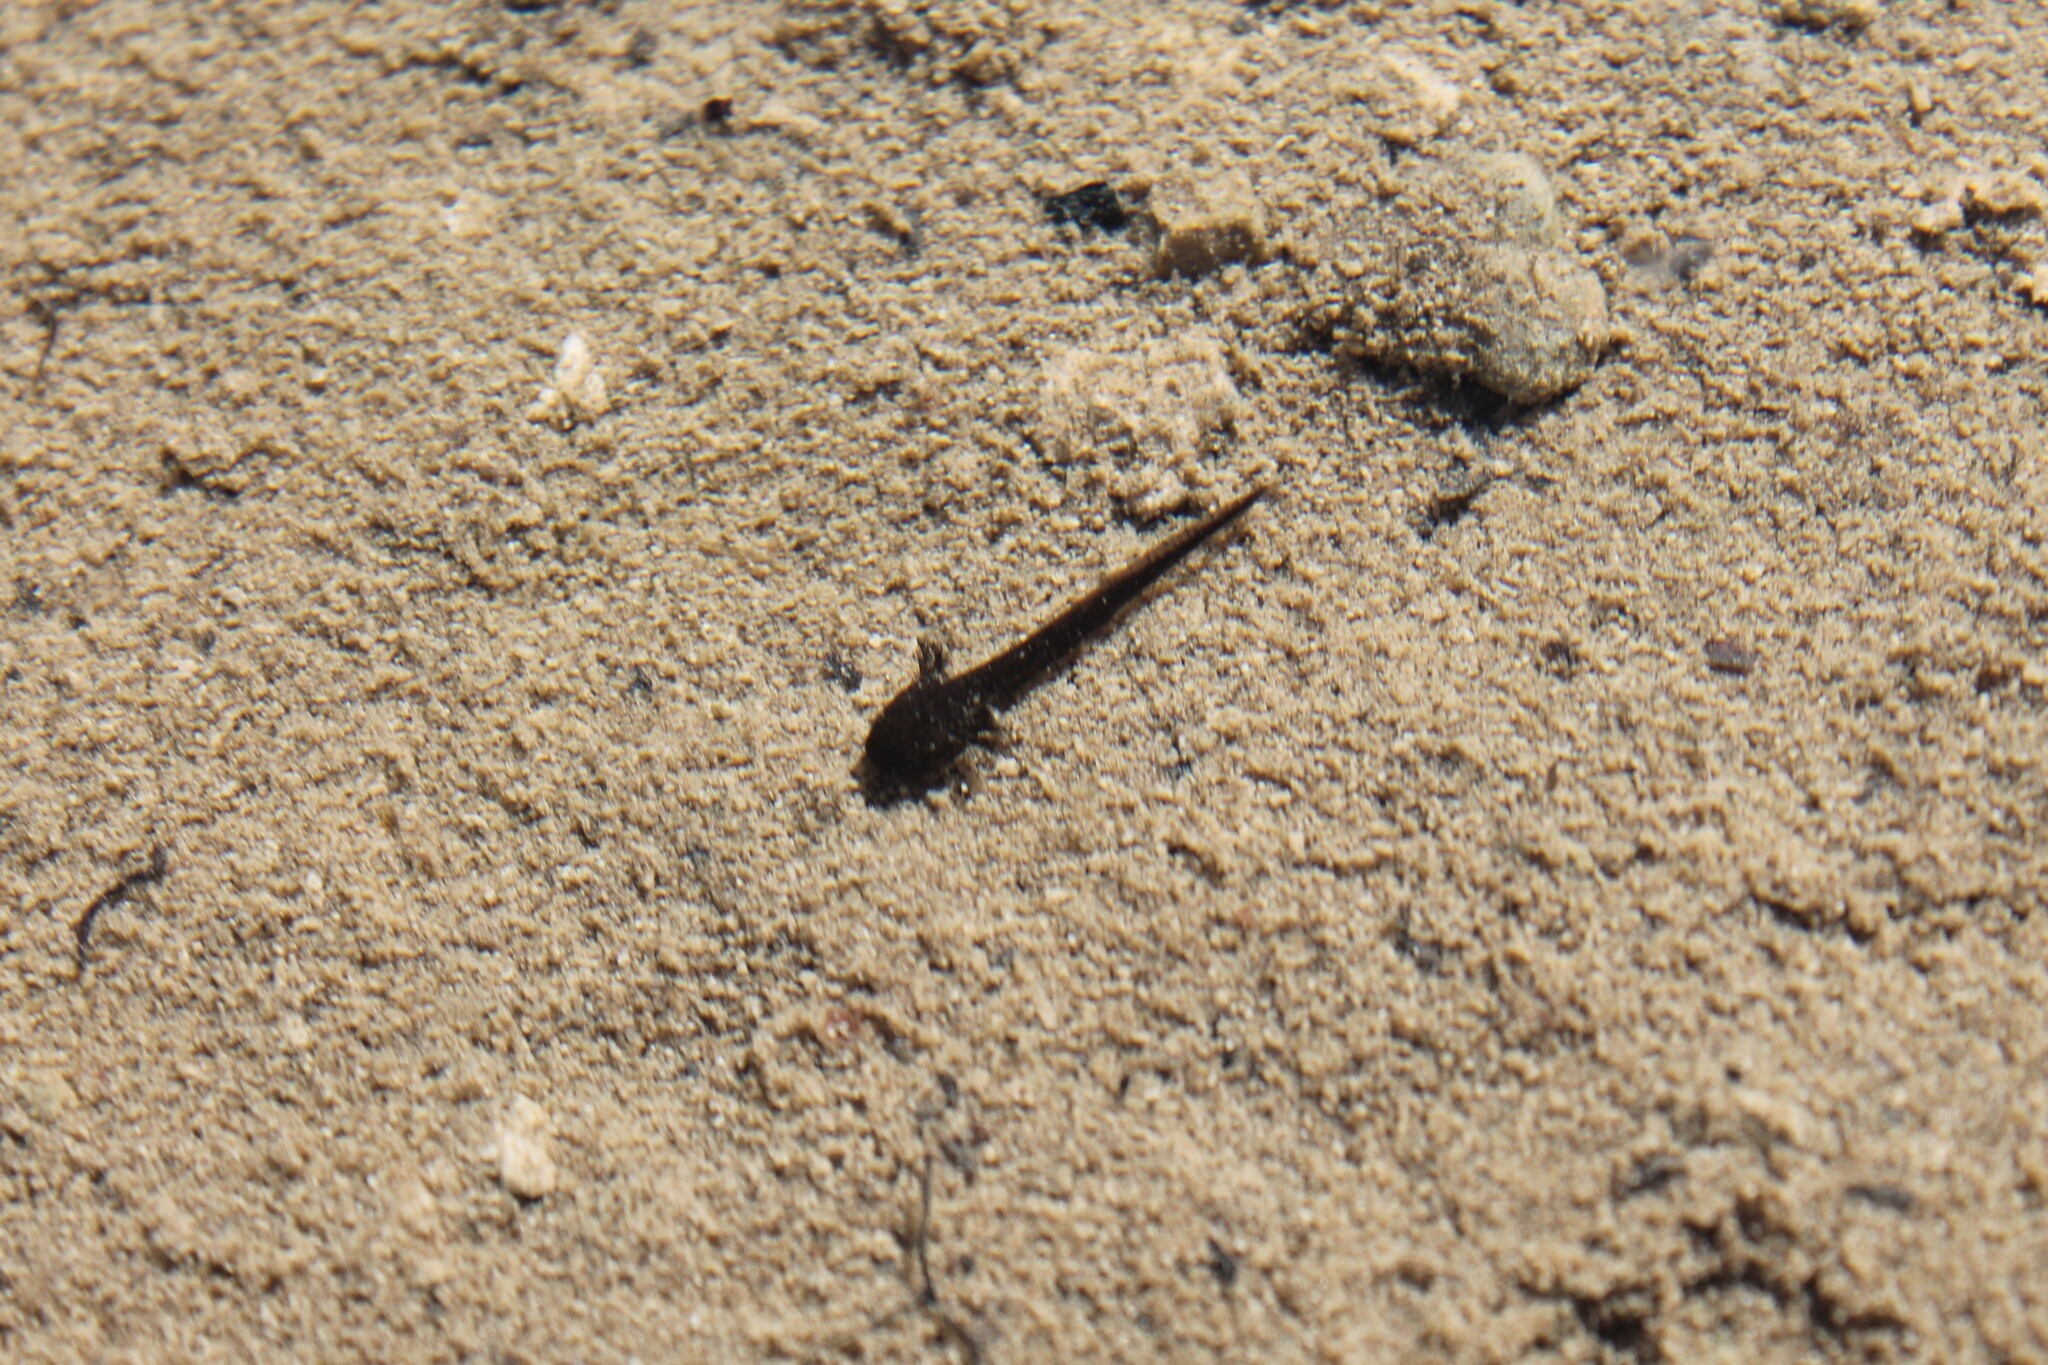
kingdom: Animalia
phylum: Chordata
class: Amphibia
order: Caudata
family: Ambystomatidae
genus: Ambystoma
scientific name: Ambystoma barbouri
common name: Streamside salamander
